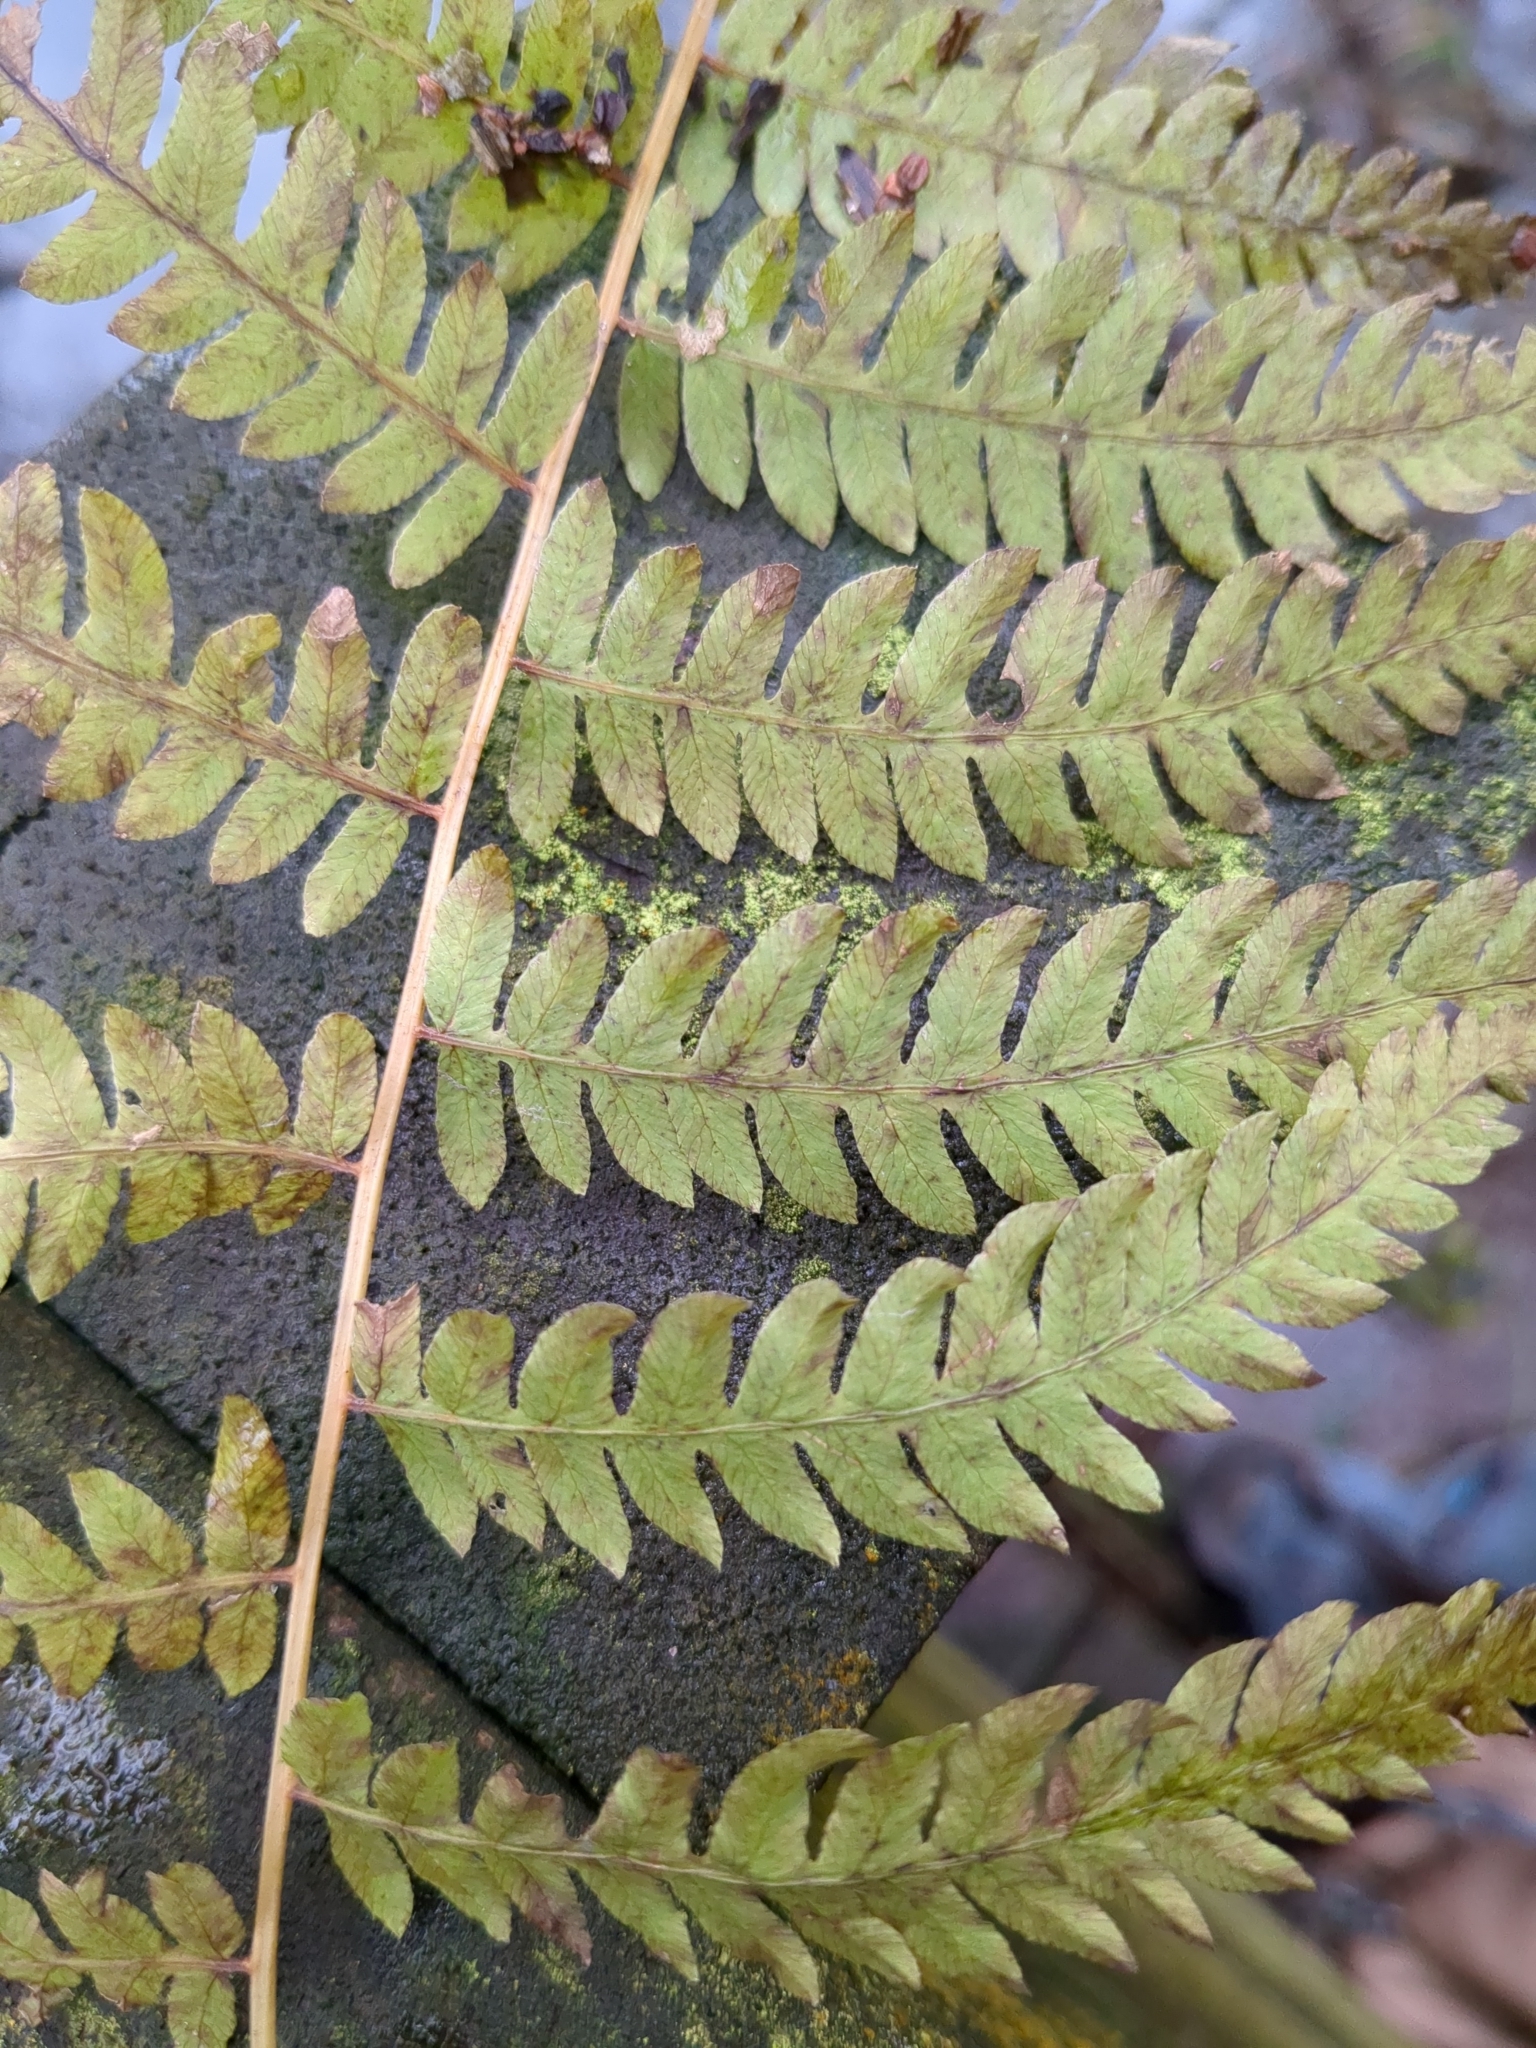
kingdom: Plantae
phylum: Tracheophyta
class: Polypodiopsida
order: Polypodiales
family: Thelypteridaceae
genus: Thelypteris
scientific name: Thelypteris palustris
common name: Marsh fern
